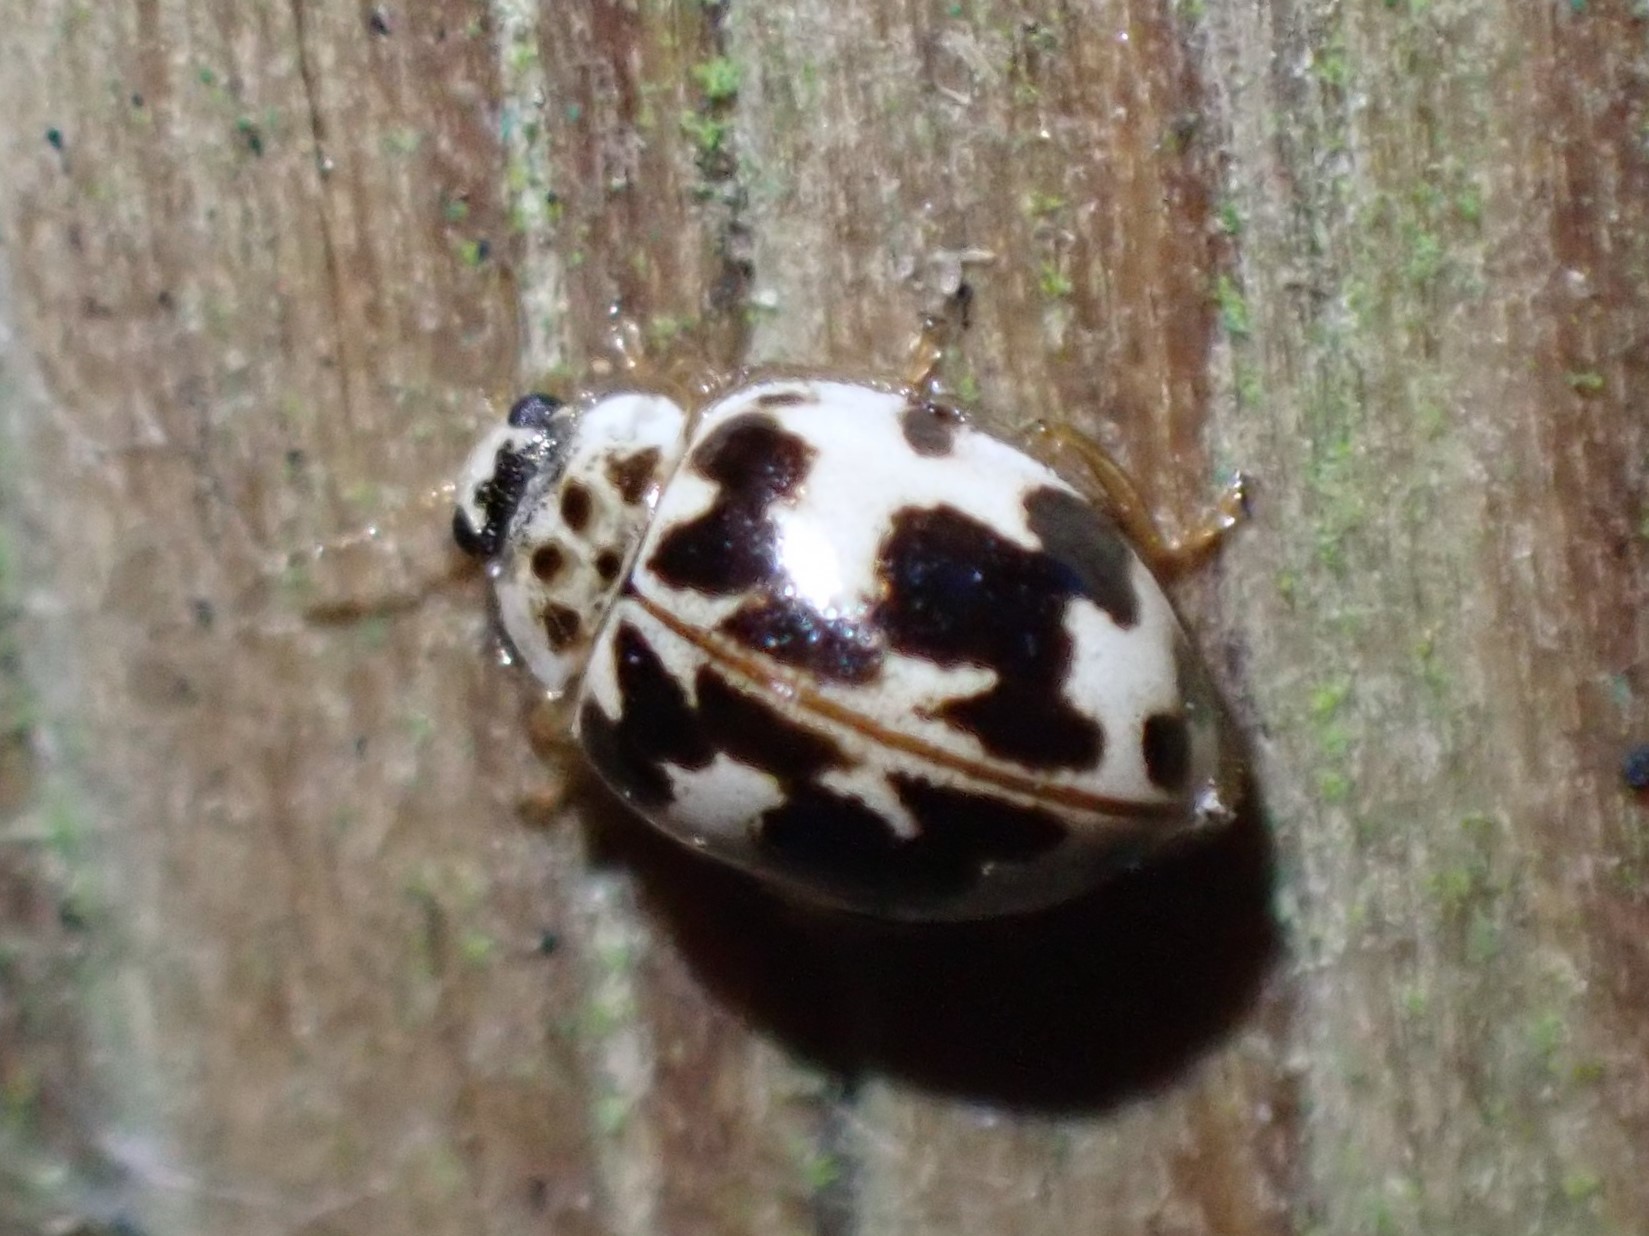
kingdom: Animalia
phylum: Arthropoda
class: Insecta
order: Coleoptera
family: Coccinellidae
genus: Psyllobora
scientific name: Psyllobora borealis
